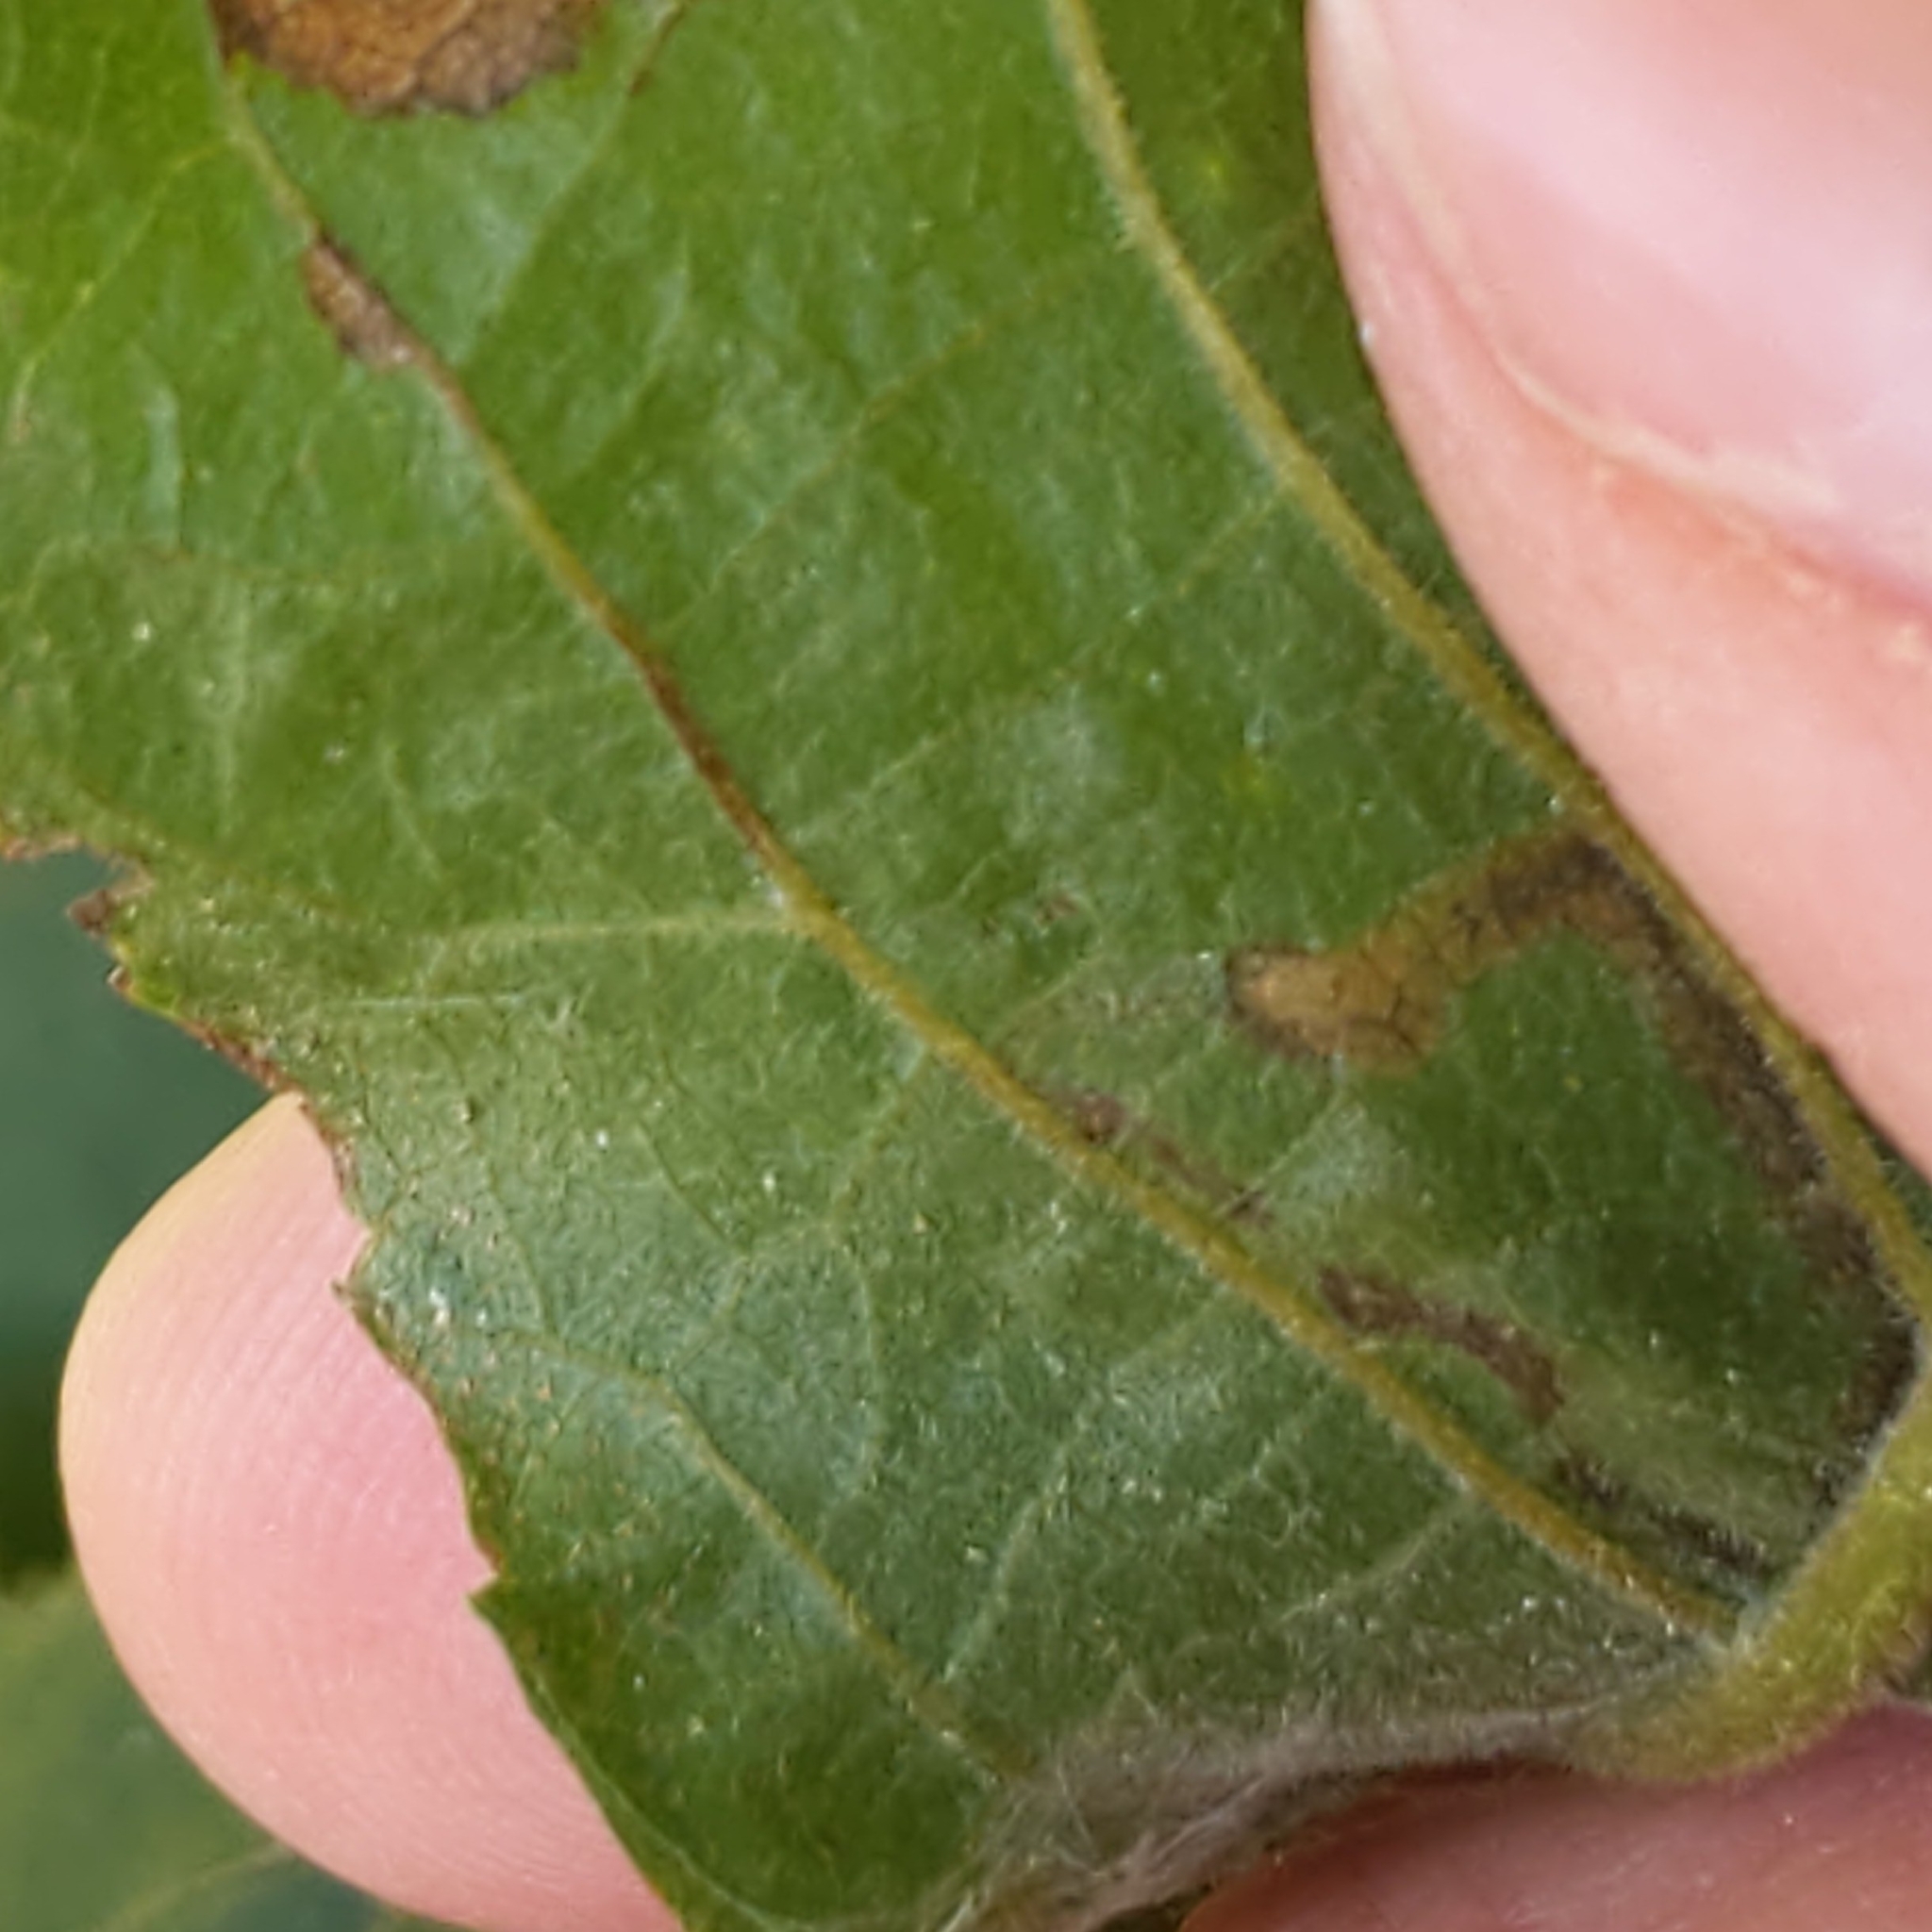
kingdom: Animalia
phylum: Arthropoda
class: Insecta
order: Lepidoptera
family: Nepticulidae
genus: Stigmella
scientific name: Stigmella caryaefoliella
